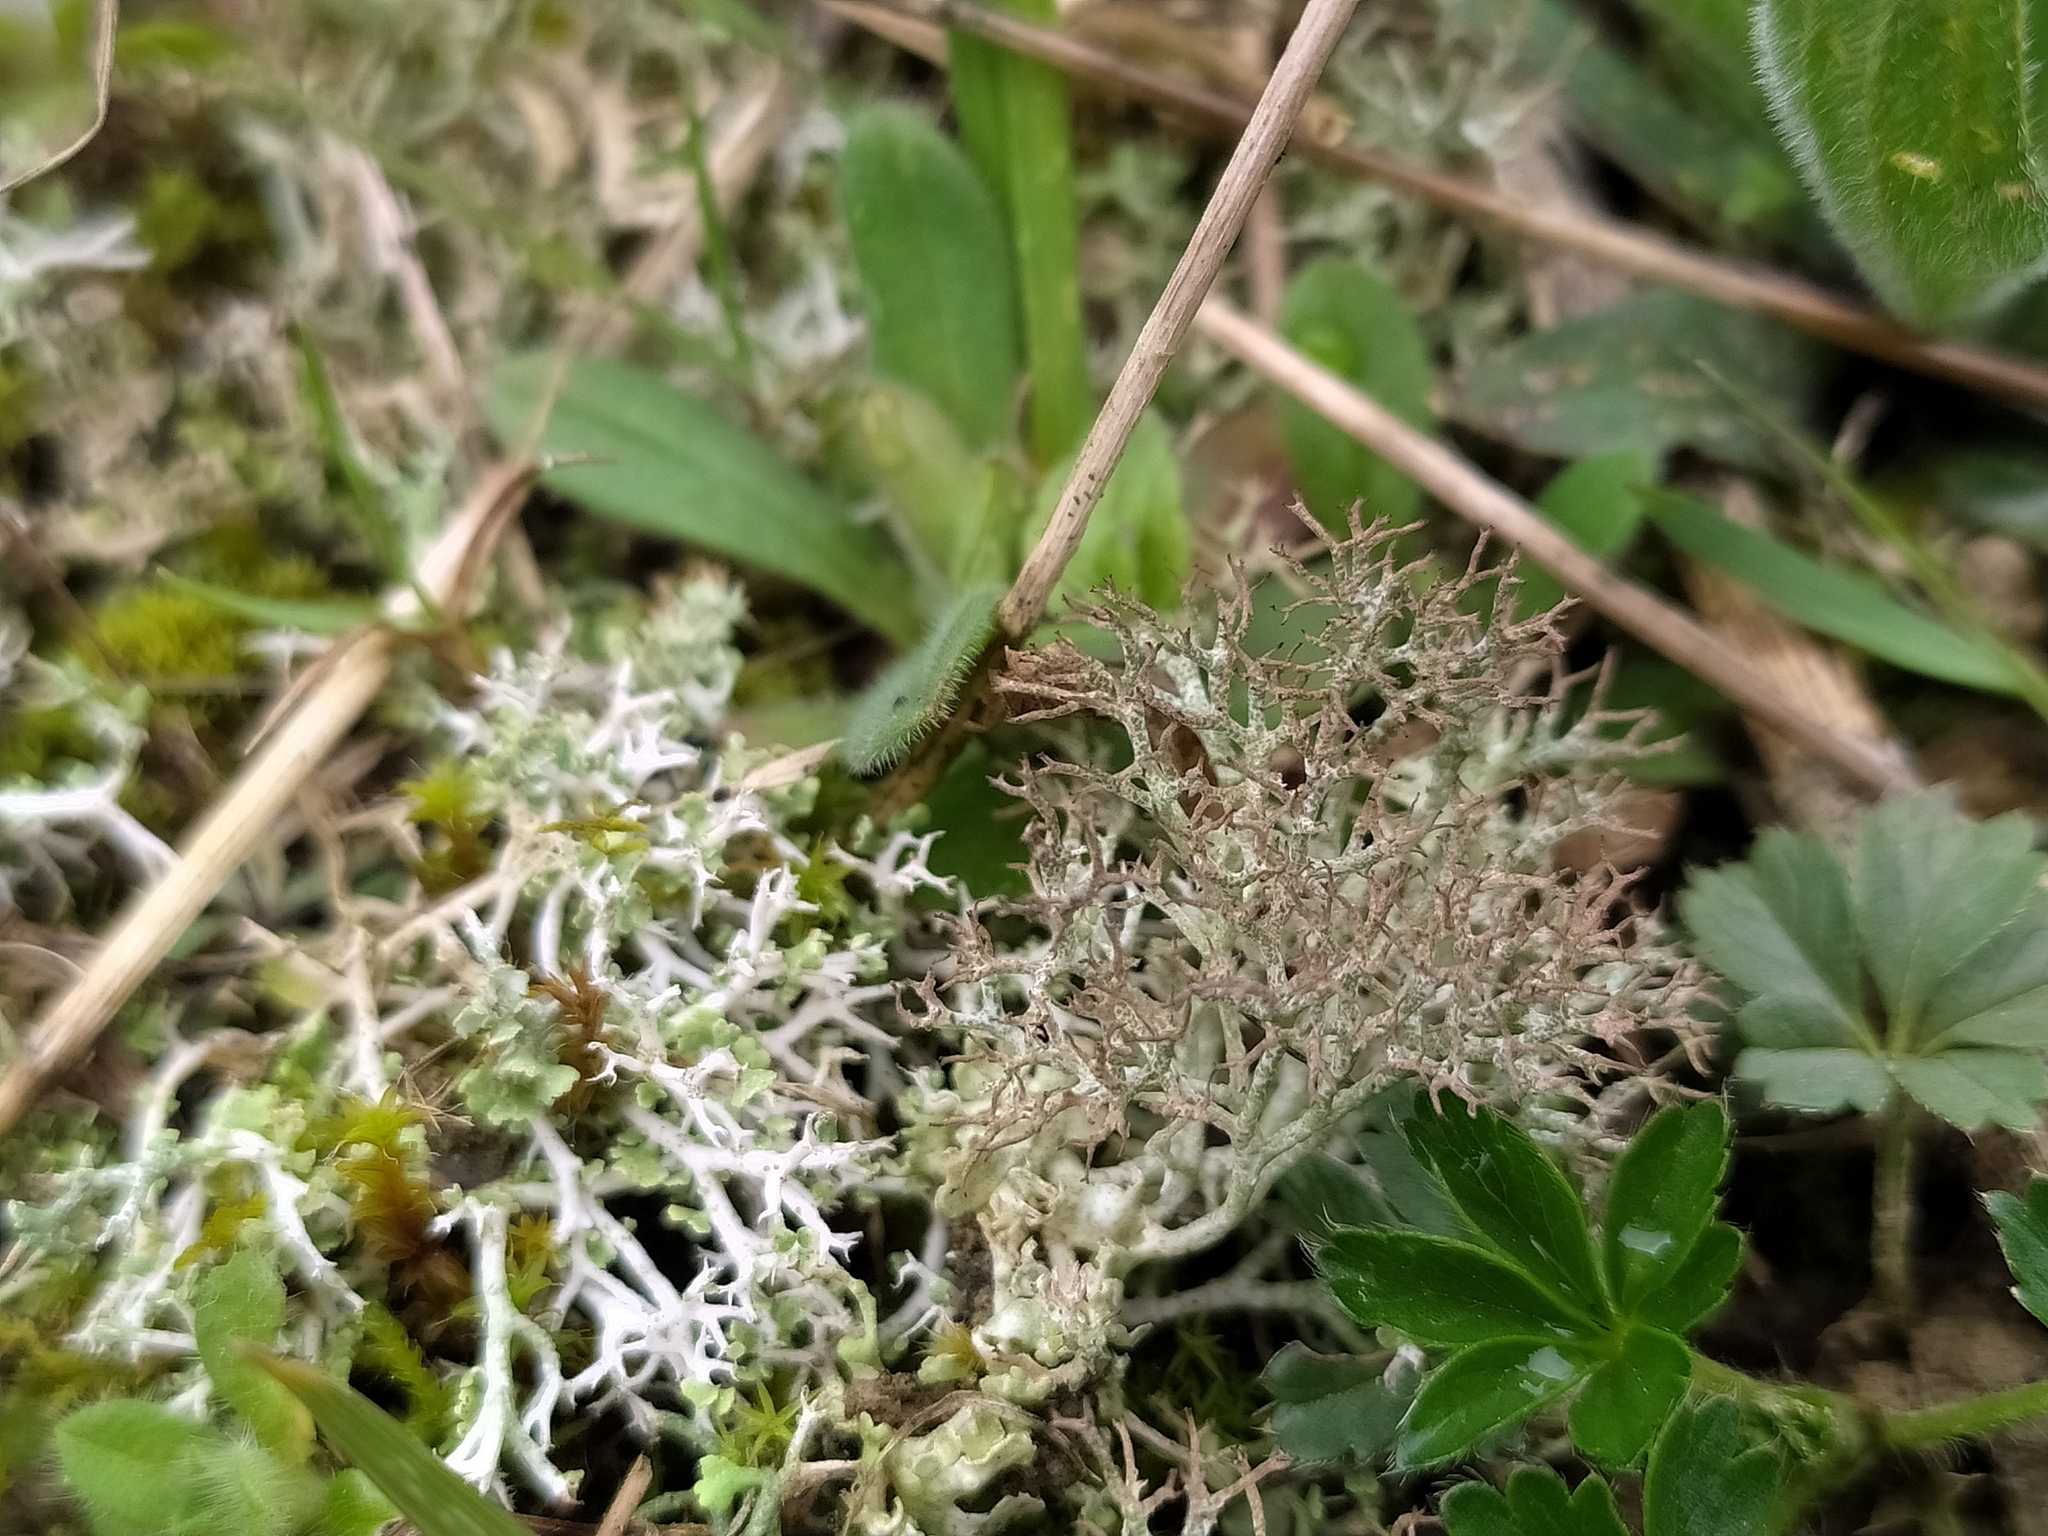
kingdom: Fungi
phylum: Ascomycota
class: Lecanoromycetes
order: Lecanorales
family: Cladoniaceae
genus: Cladonia
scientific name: Cladonia rangiformis
